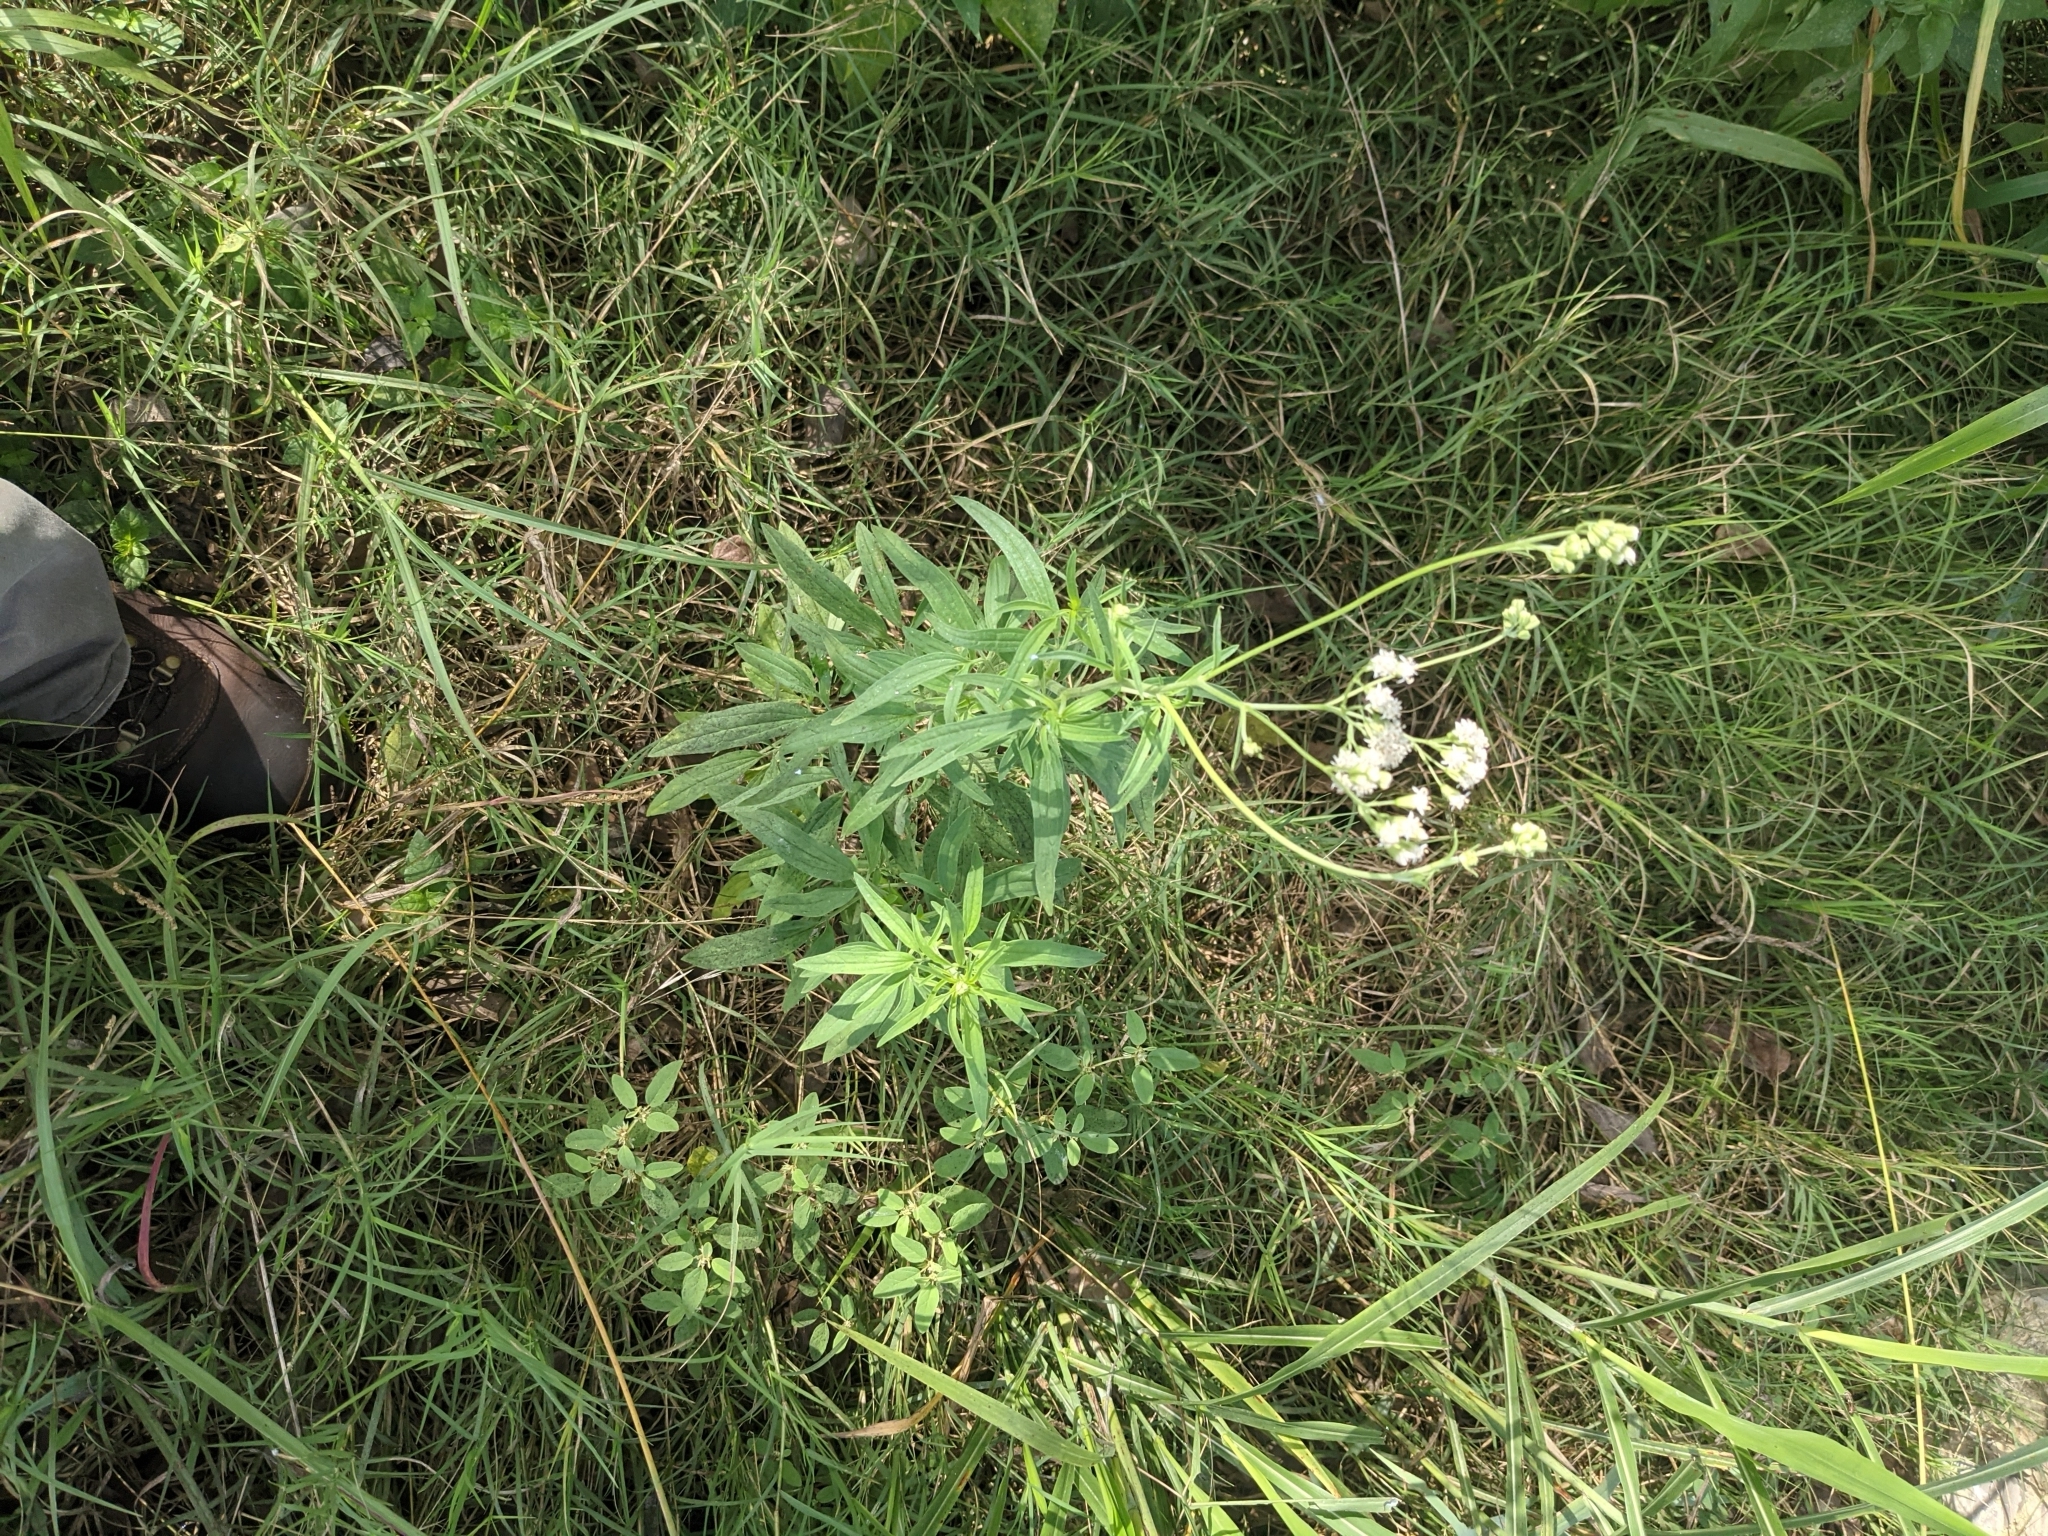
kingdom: Plantae
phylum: Tracheophyta
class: Magnoliopsida
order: Asterales
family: Asteraceae
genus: Florestina
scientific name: Florestina tripteris
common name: Sticky florestina
